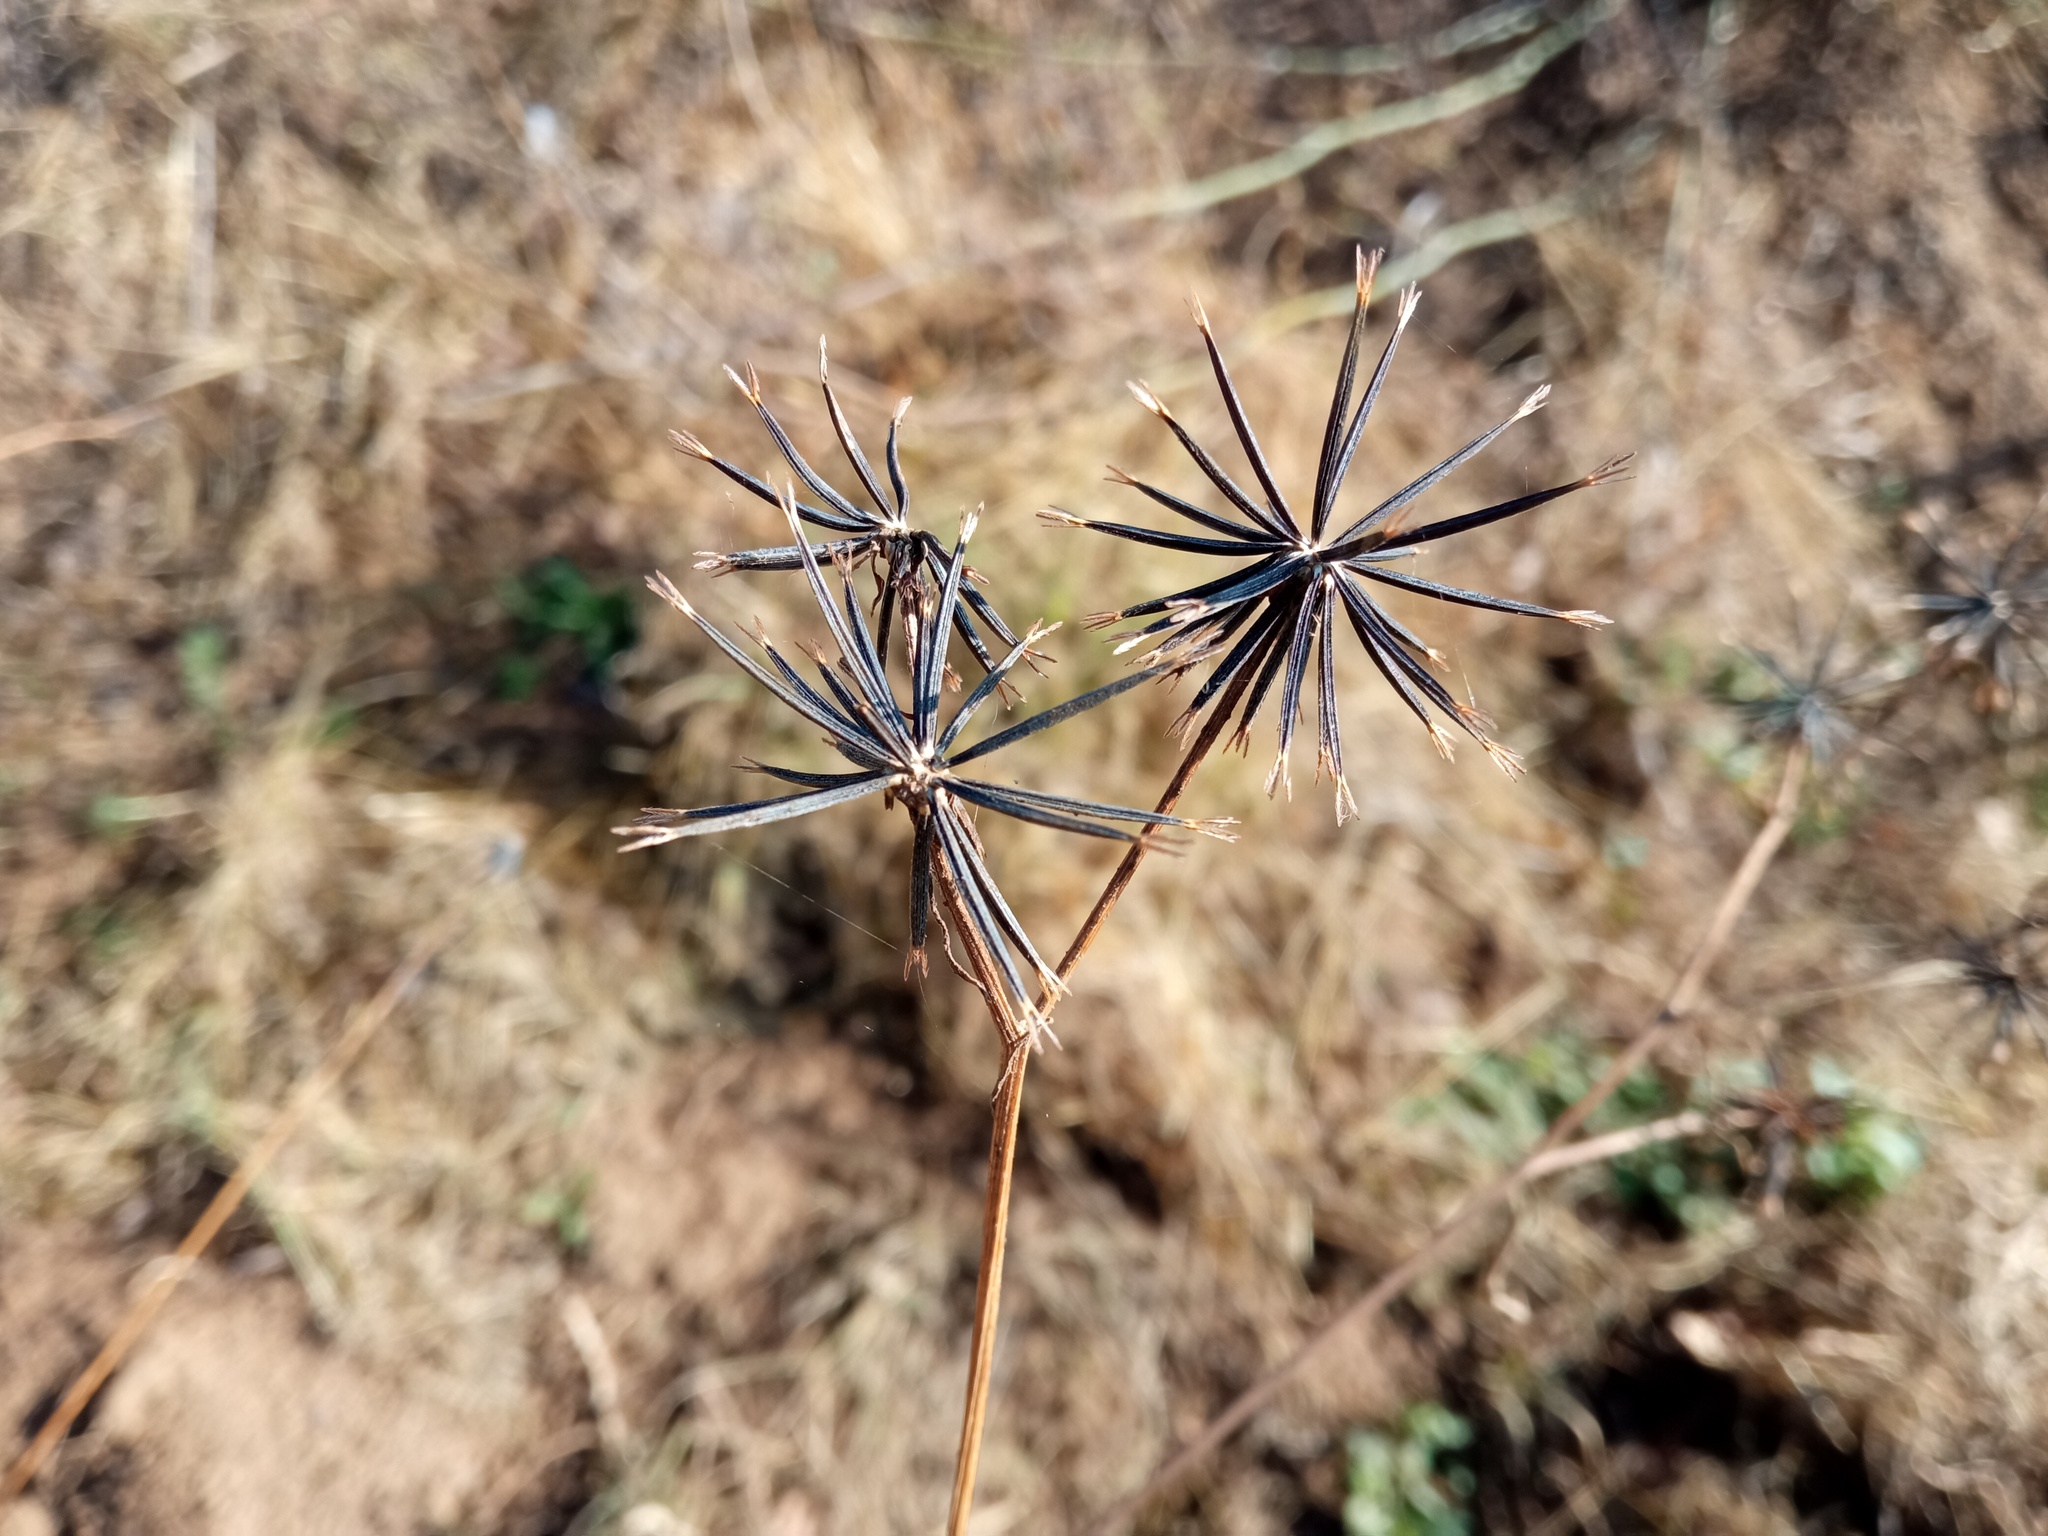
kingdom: Plantae
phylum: Tracheophyta
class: Magnoliopsida
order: Asterales
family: Asteraceae
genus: Bidens
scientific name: Bidens subalternans
